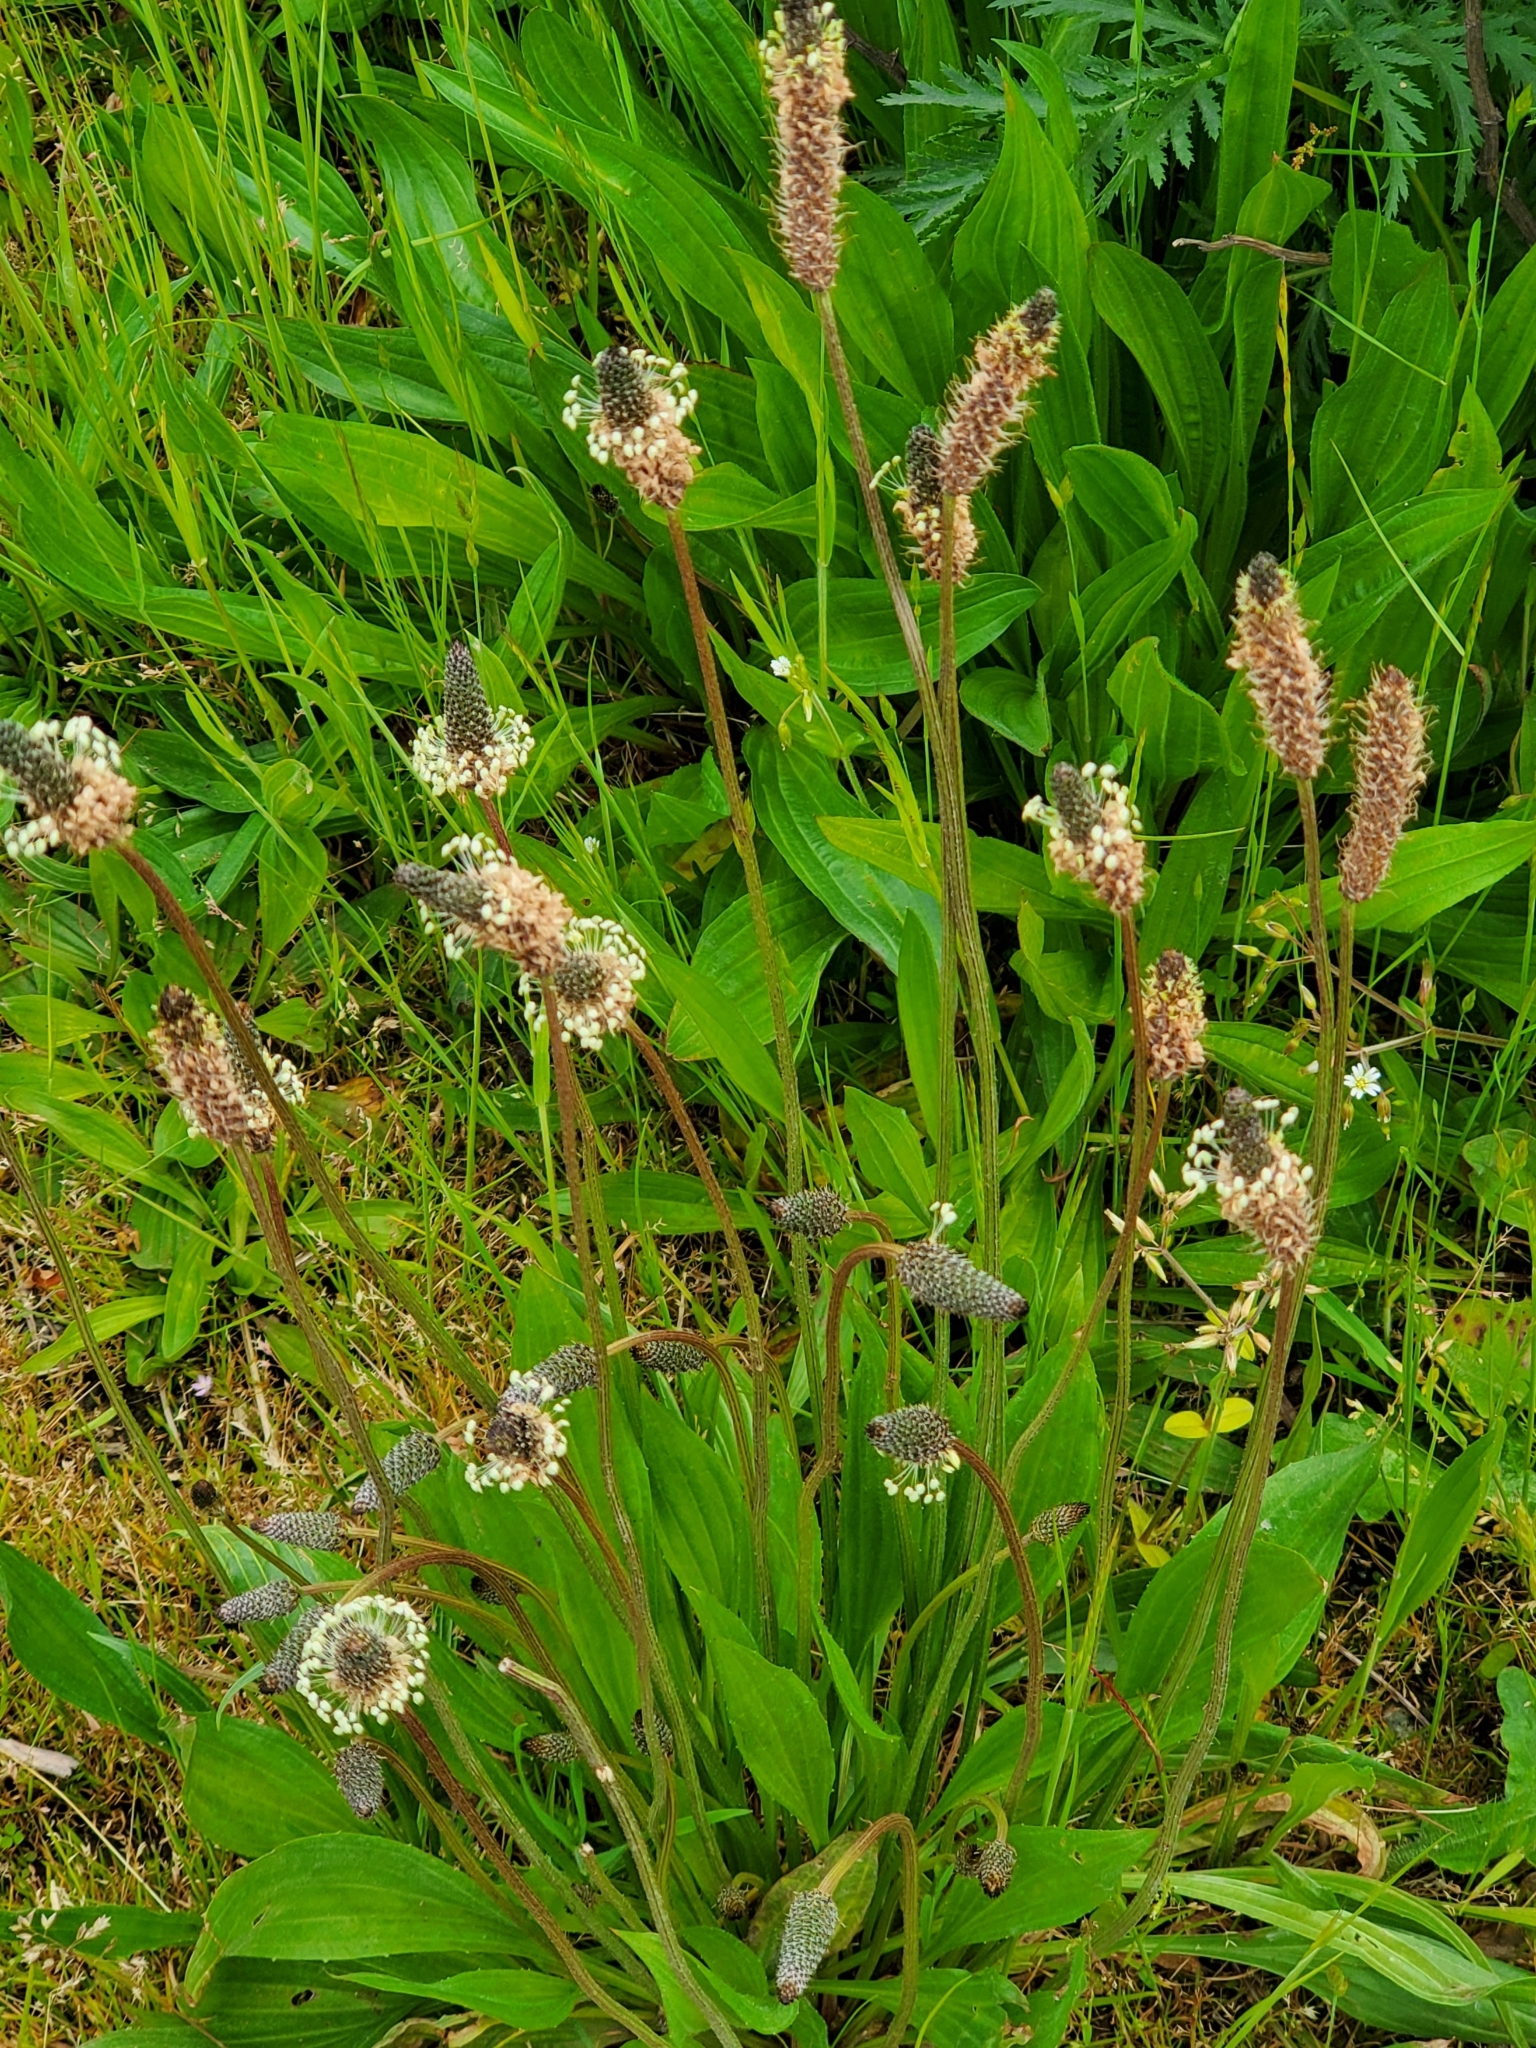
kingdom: Plantae
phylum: Tracheophyta
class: Magnoliopsida
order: Lamiales
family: Plantaginaceae
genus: Plantago
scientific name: Plantago lanceolata
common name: Ribwort plantain
